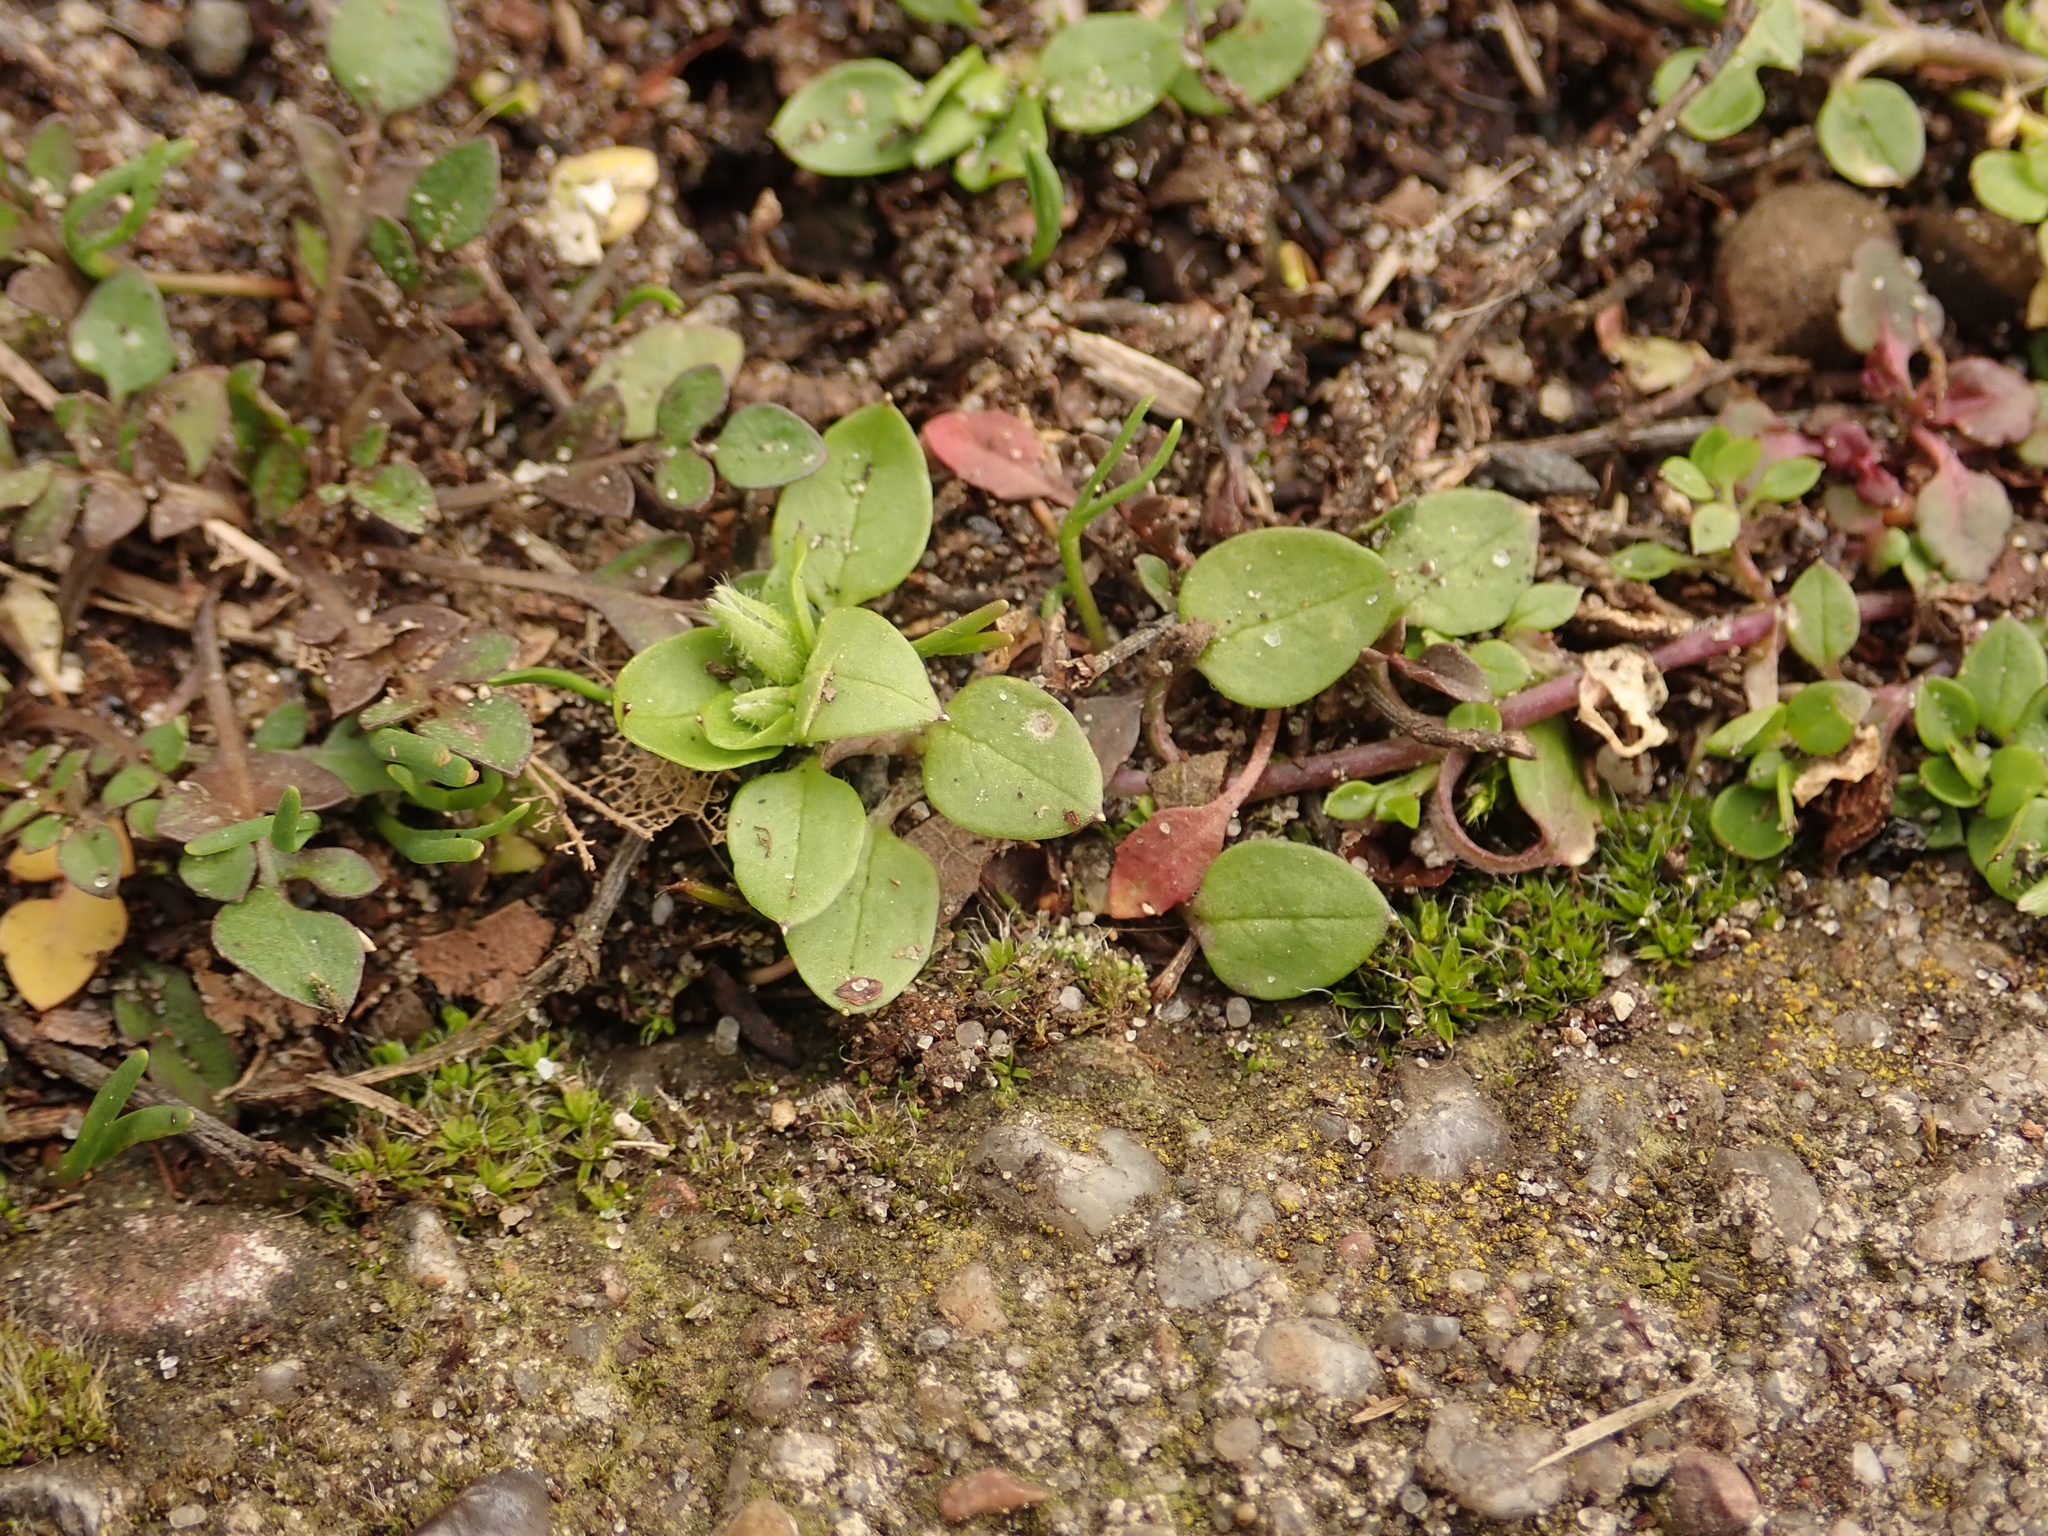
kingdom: Plantae
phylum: Tracheophyta
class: Magnoliopsida
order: Caryophyllales
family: Caryophyllaceae
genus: Stellaria
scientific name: Stellaria media
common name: Common chickweed
